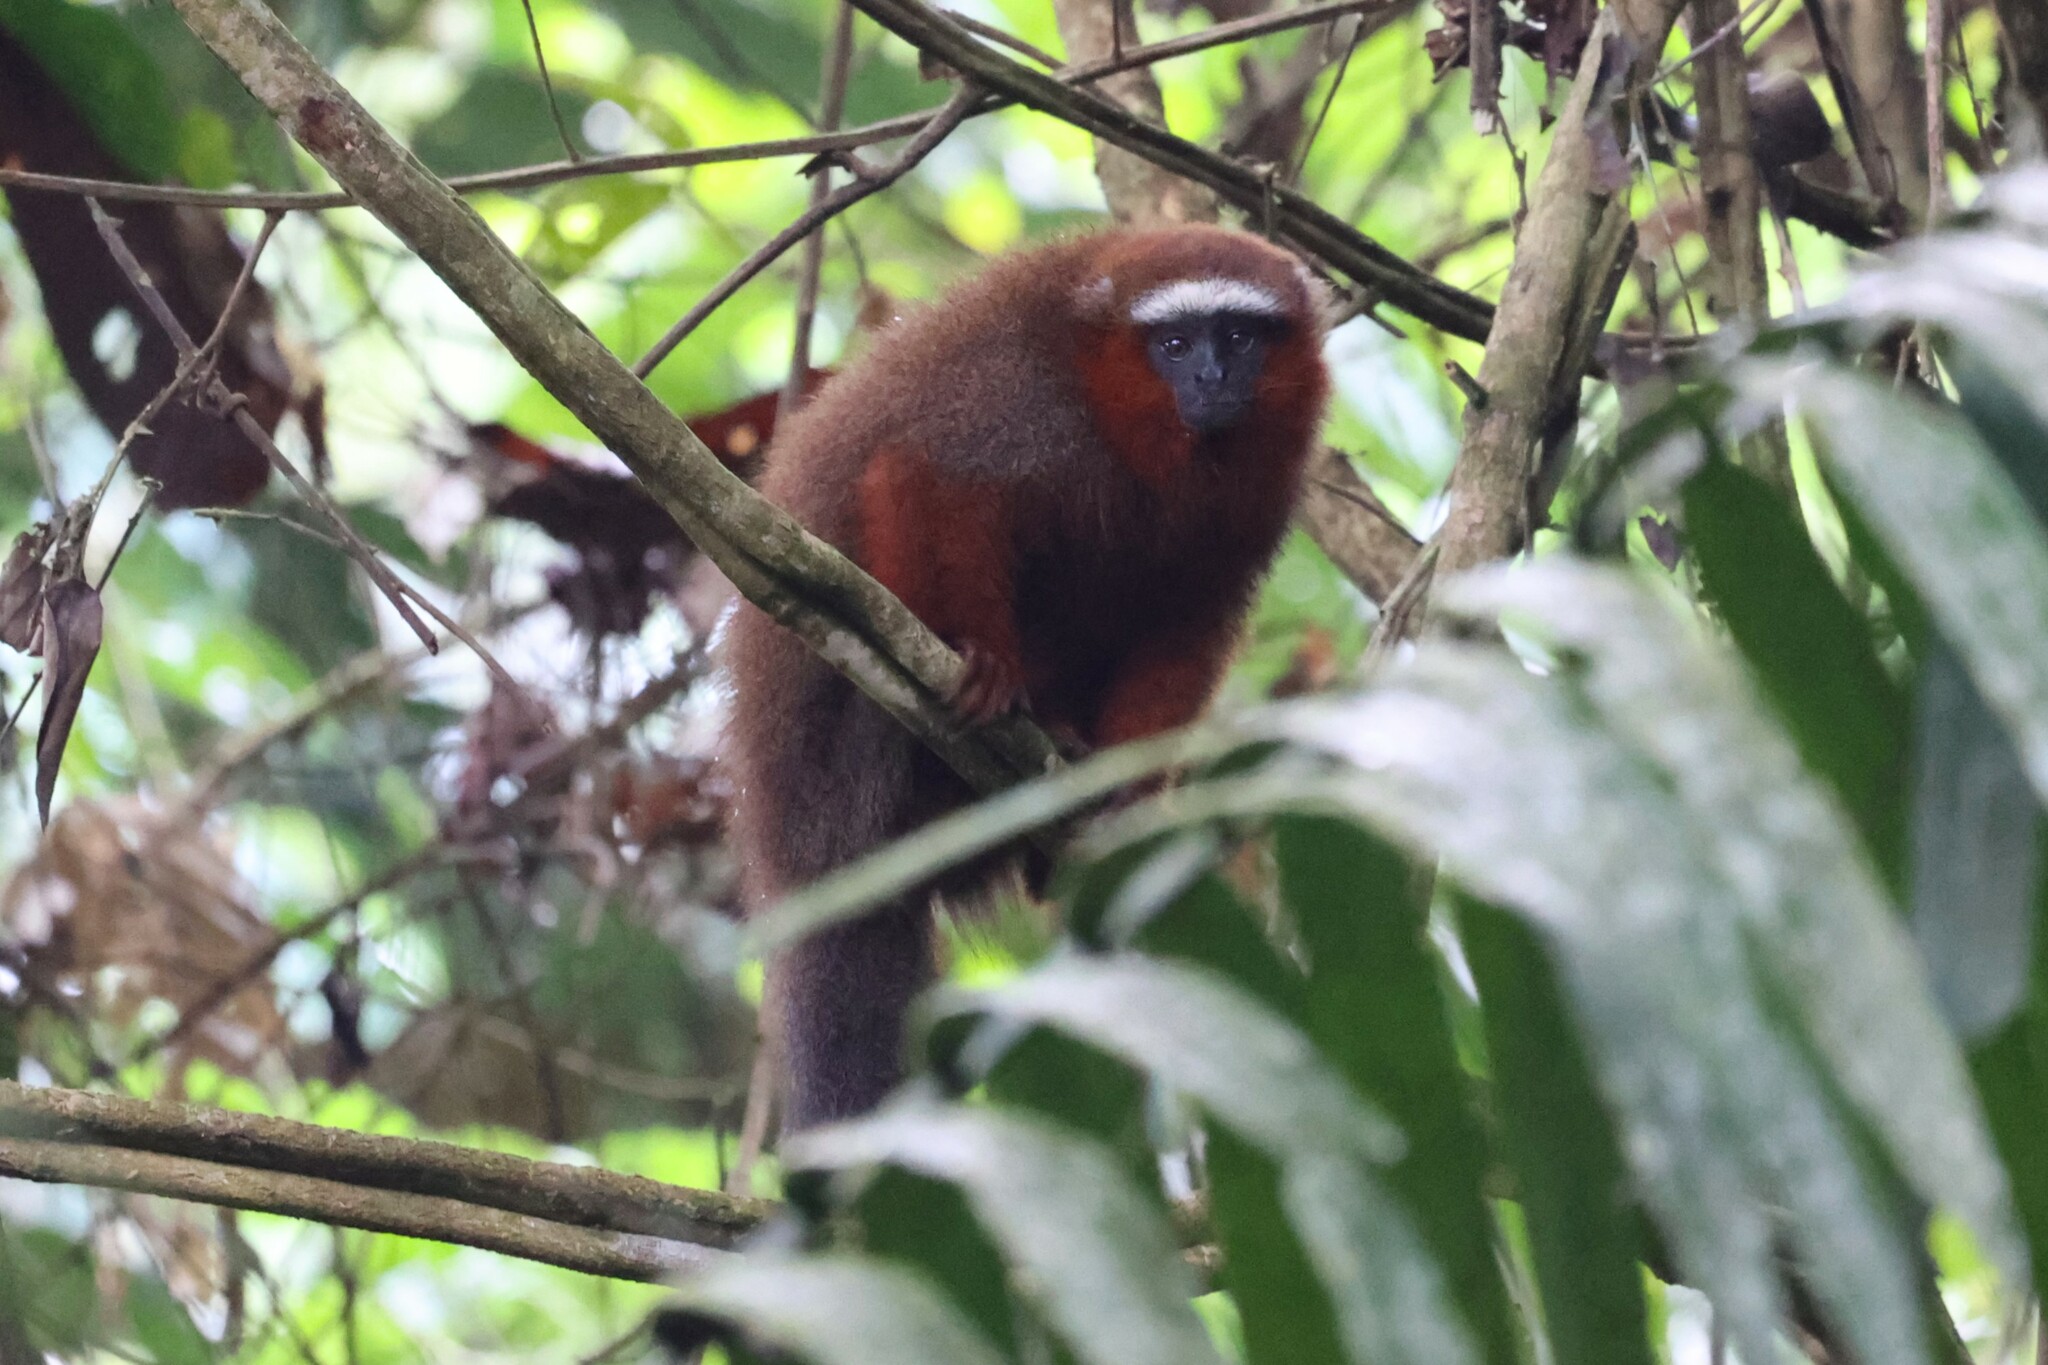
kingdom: Animalia
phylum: Chordata
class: Mammalia
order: Primates
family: Pitheciidae
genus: Plecturocebus
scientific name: Plecturocebus discolor
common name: Red-crowned titi
